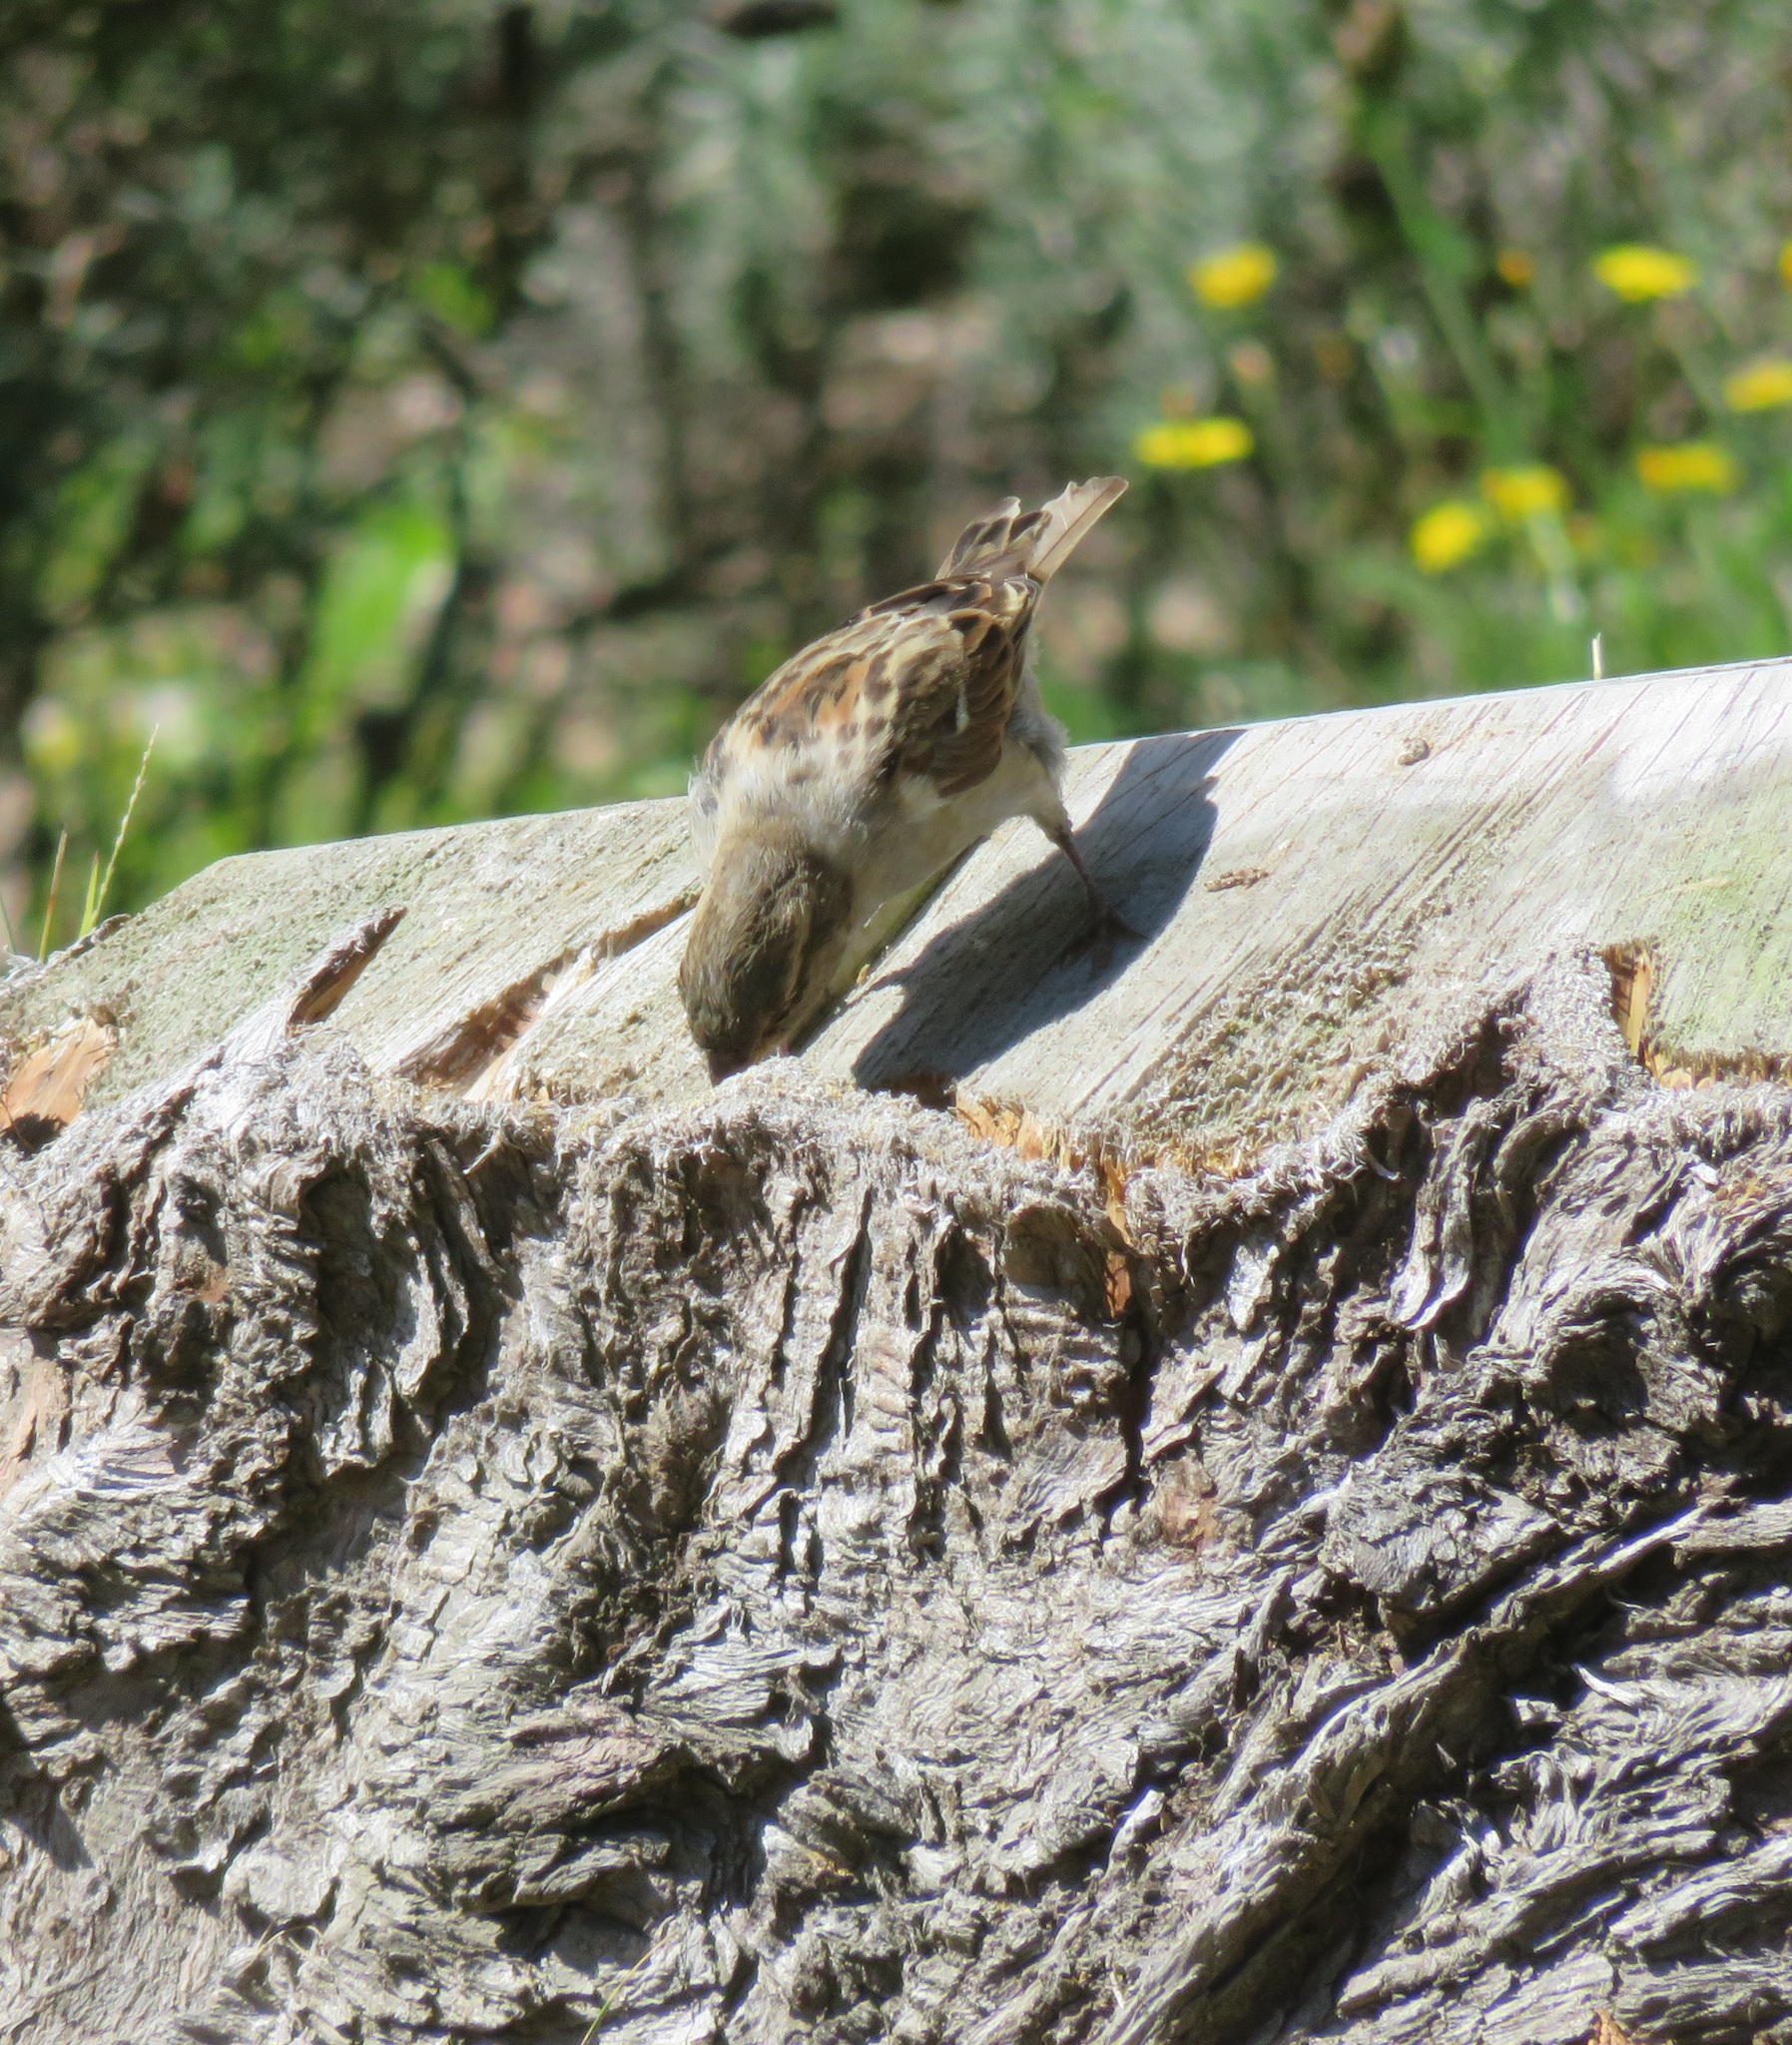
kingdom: Animalia
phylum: Chordata
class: Aves
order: Passeriformes
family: Passeridae
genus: Passer
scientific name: Passer domesticus
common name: House sparrow
